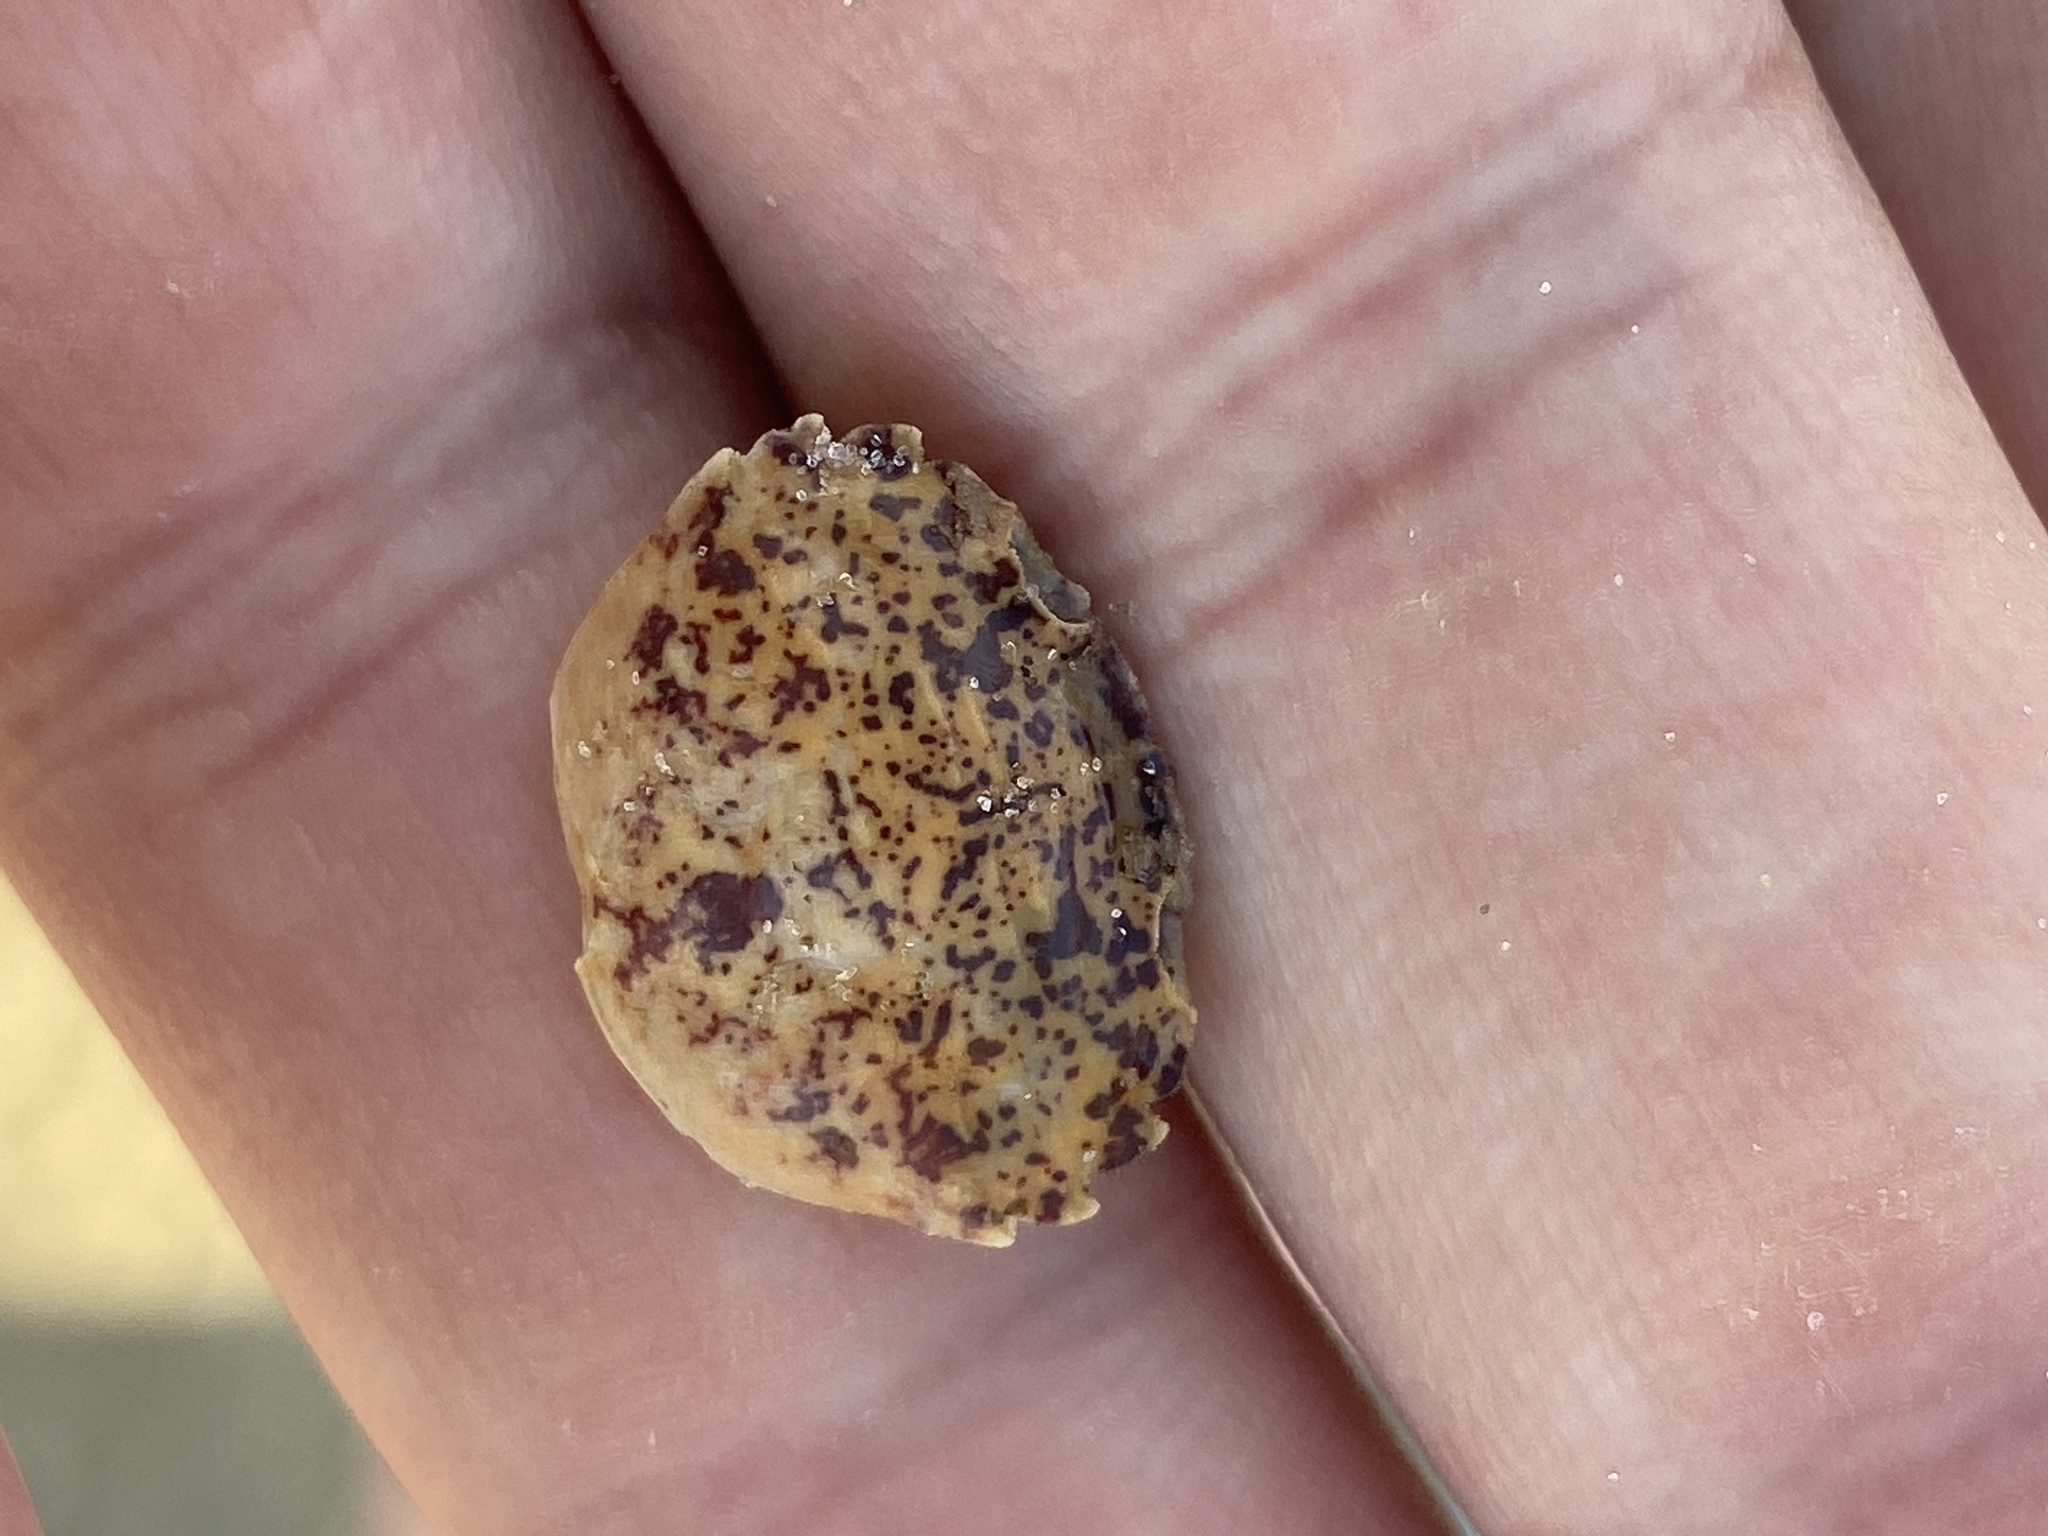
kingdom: Animalia
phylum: Arthropoda
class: Malacostraca
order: Decapoda
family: Panopeidae
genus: Rhithropanopeus
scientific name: Rhithropanopeus harrisii
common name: Dwarf crab
